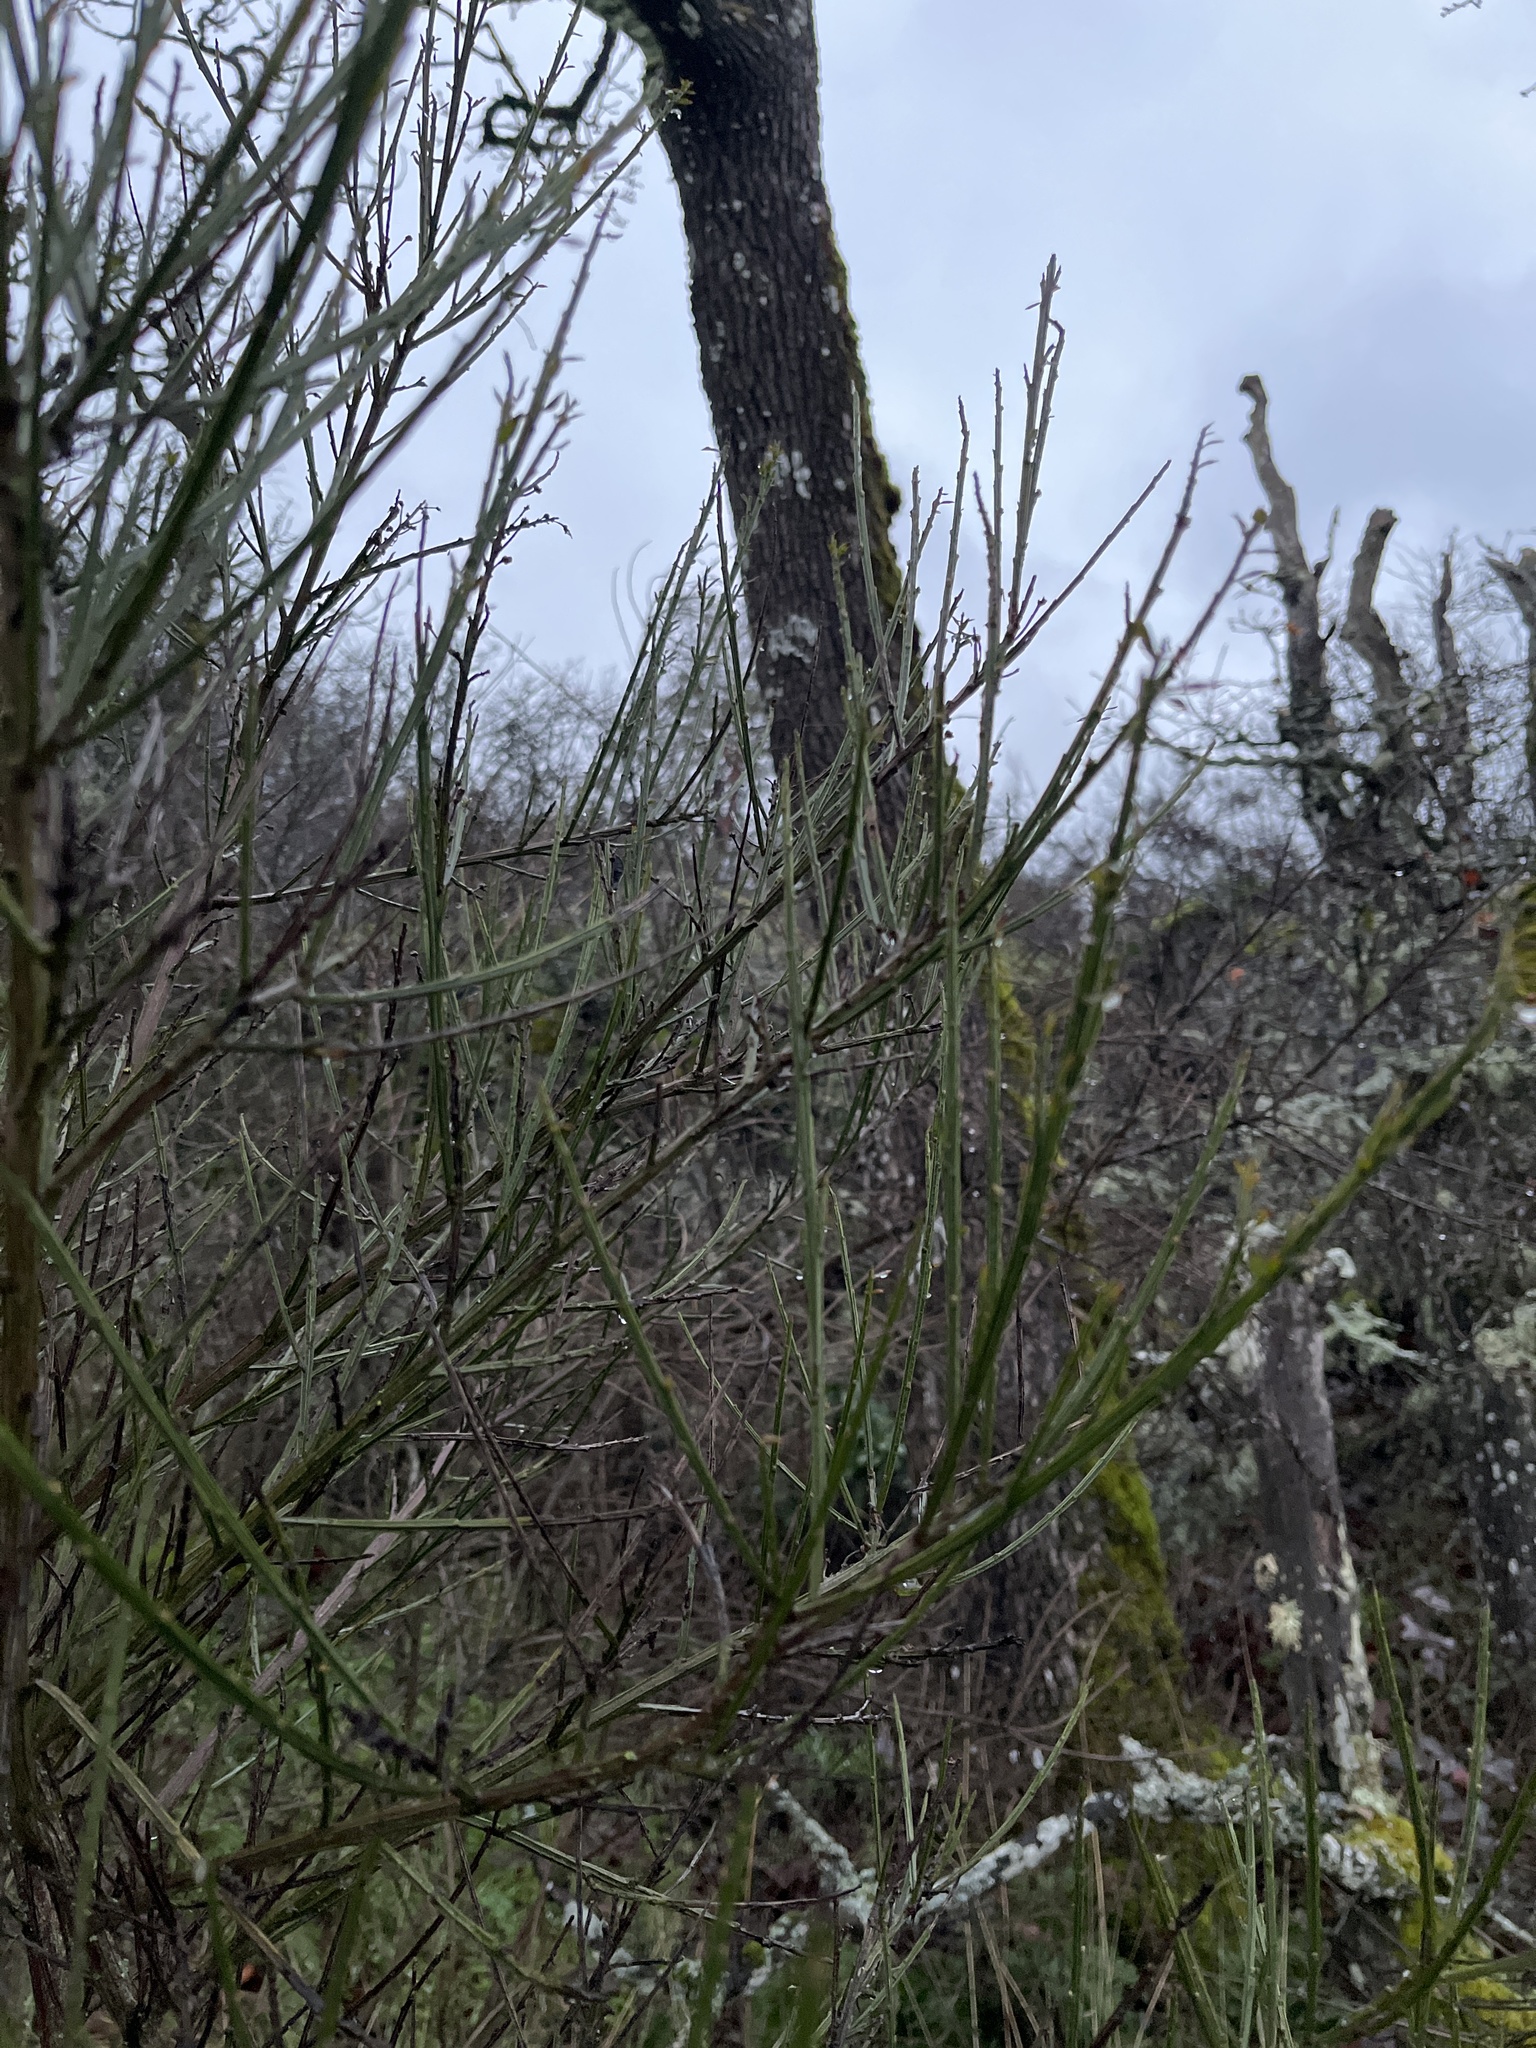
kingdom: Plantae
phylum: Tracheophyta
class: Magnoliopsida
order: Fabales
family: Fabaceae
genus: Cytisus
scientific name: Cytisus scoparius
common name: Scotch broom
